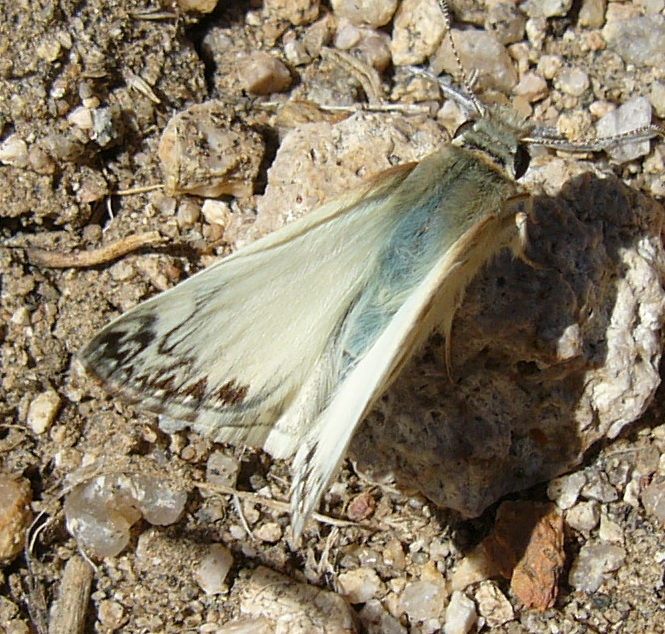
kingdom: Animalia
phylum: Arthropoda
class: Insecta
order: Lepidoptera
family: Hesperiidae
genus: Heliopetes
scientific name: Heliopetes ericetorum
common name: Northern white-skipper
